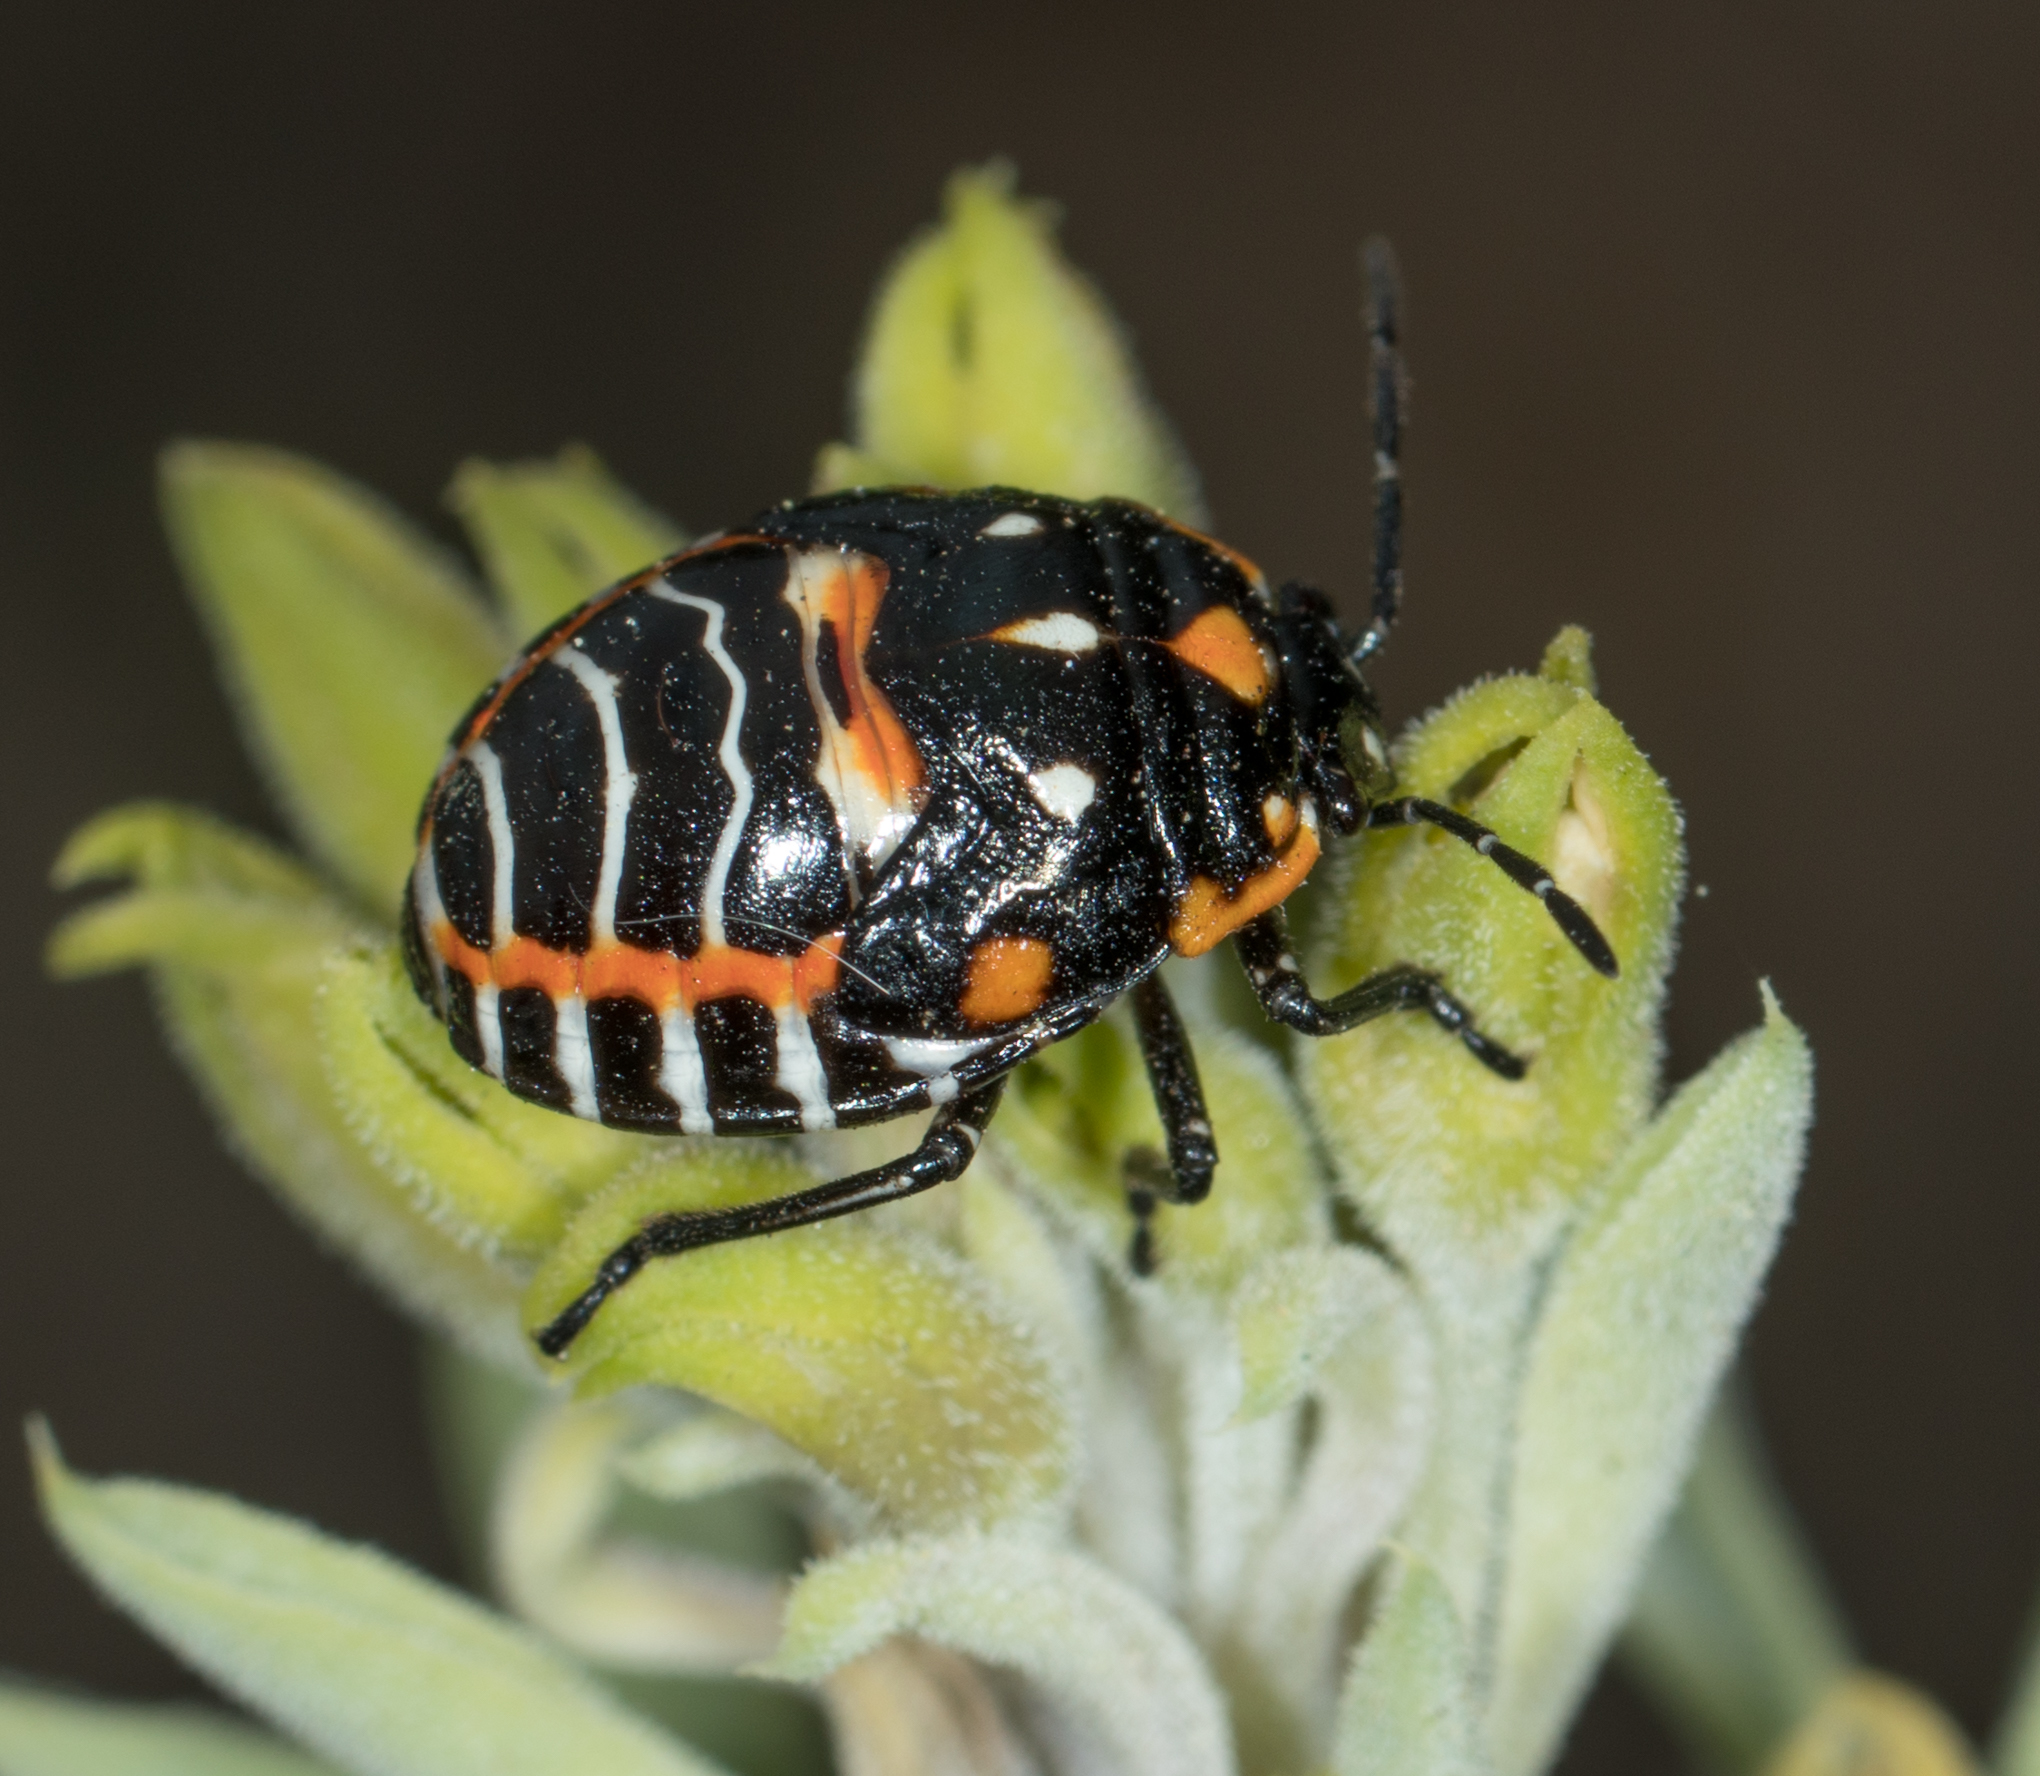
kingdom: Animalia
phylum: Arthropoda
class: Insecta
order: Hemiptera
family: Pentatomidae
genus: Murgantia
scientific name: Murgantia histrionica
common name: Harlequin bug
